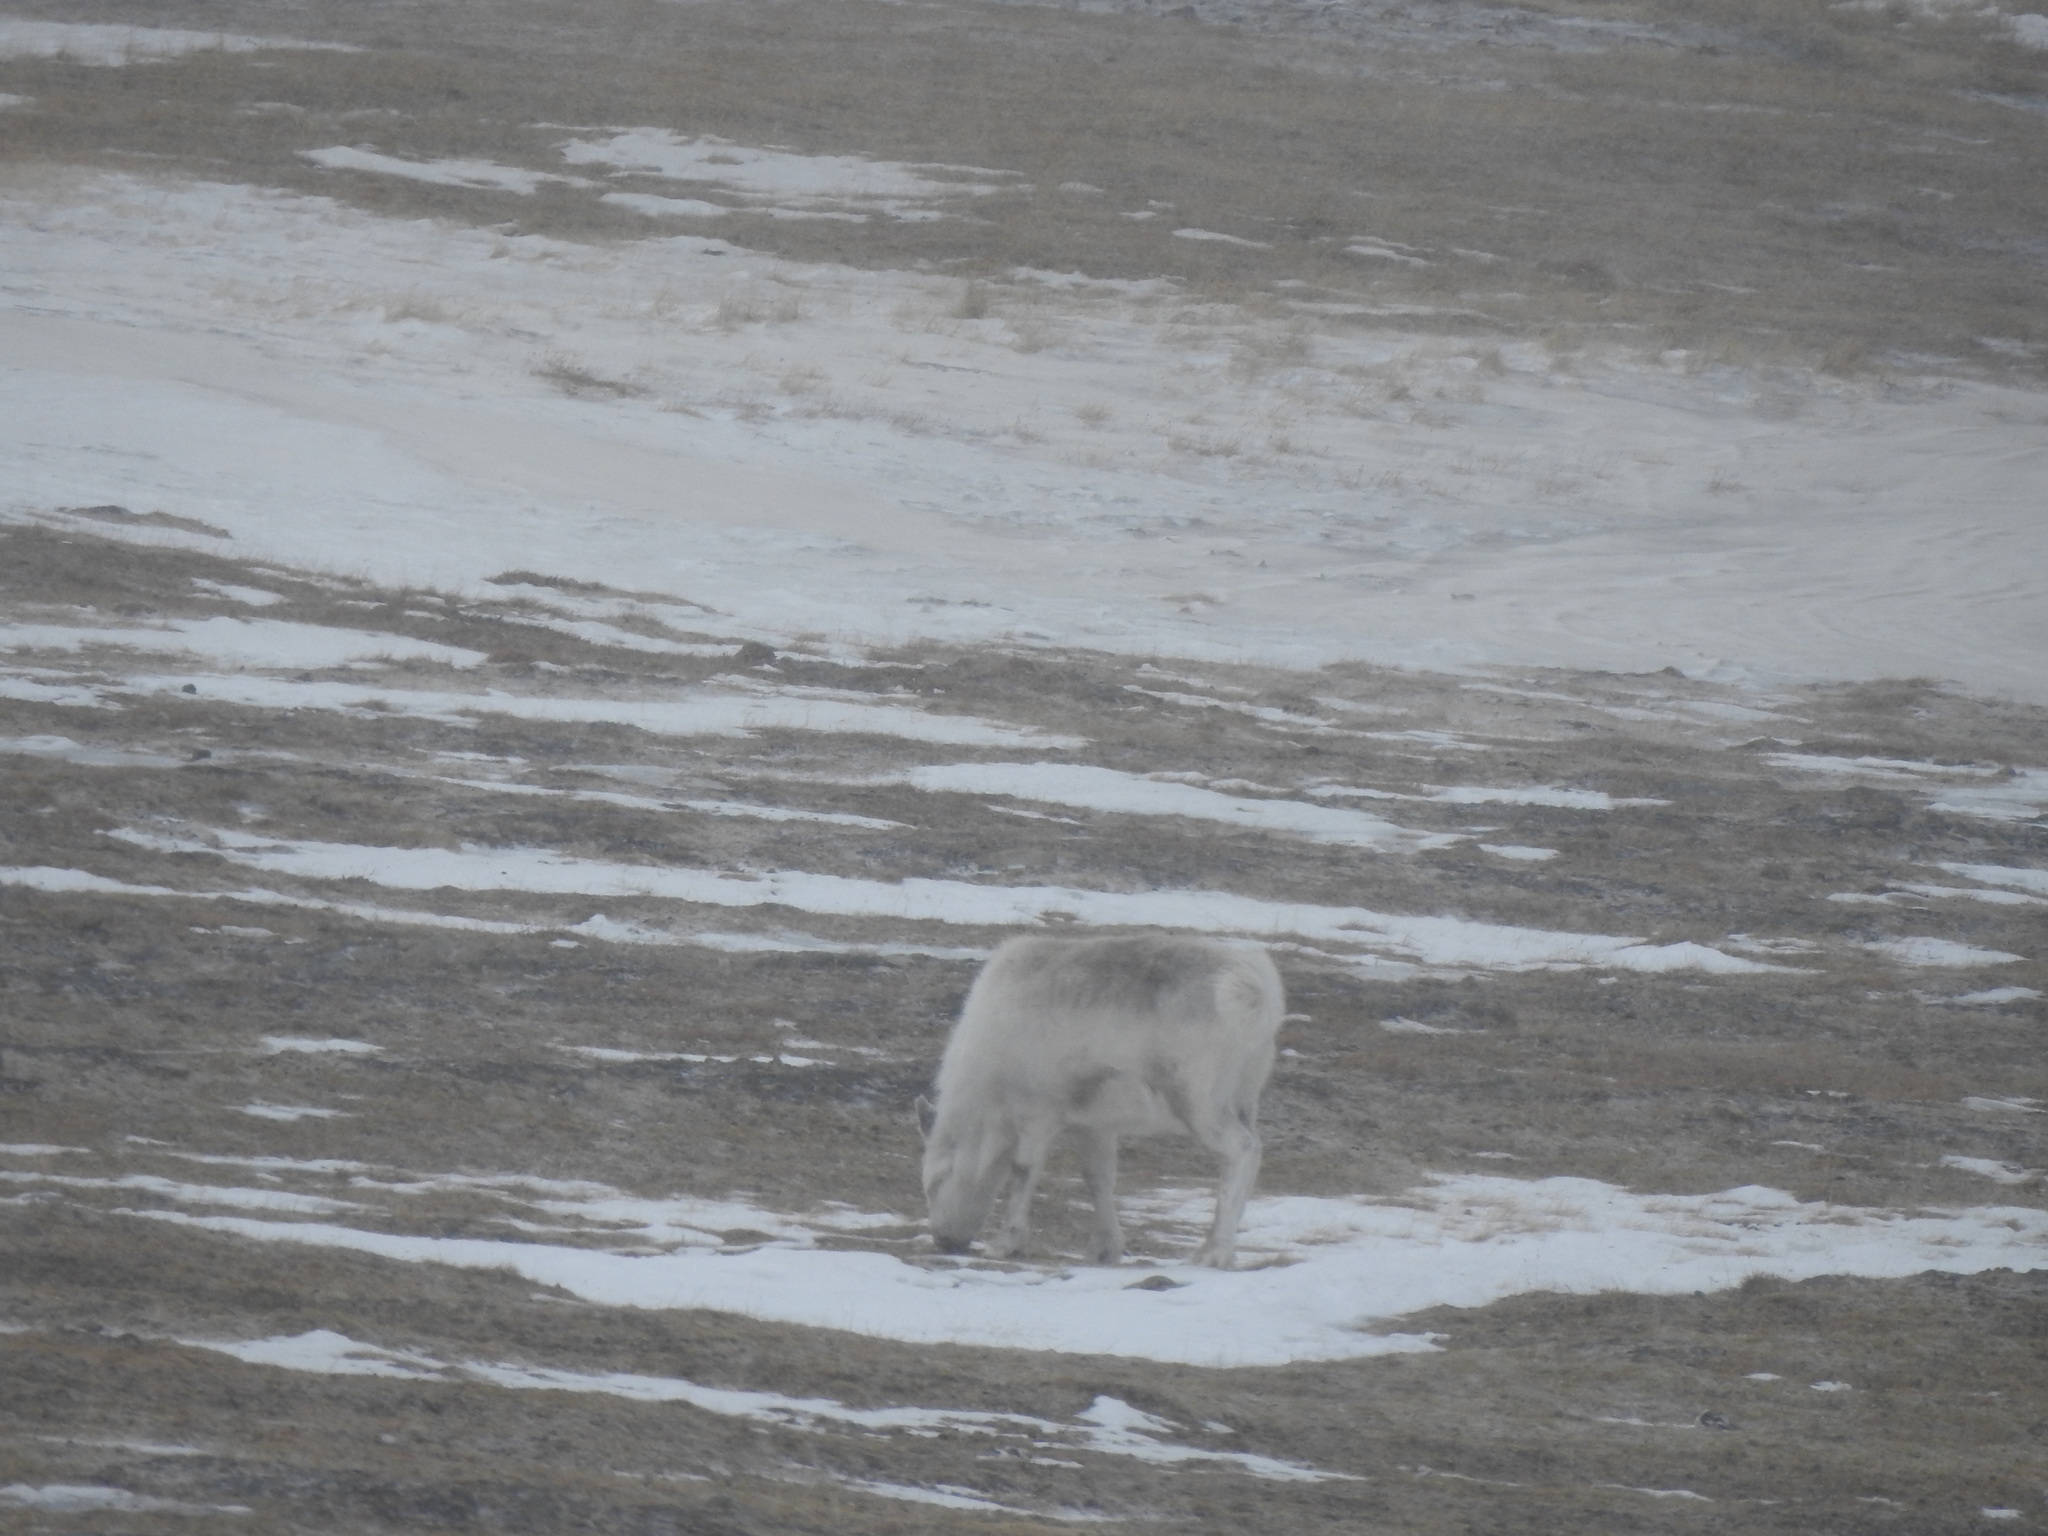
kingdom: Animalia
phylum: Chordata
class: Mammalia
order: Artiodactyla
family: Cervidae
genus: Rangifer
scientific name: Rangifer tarandus
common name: Reindeer
